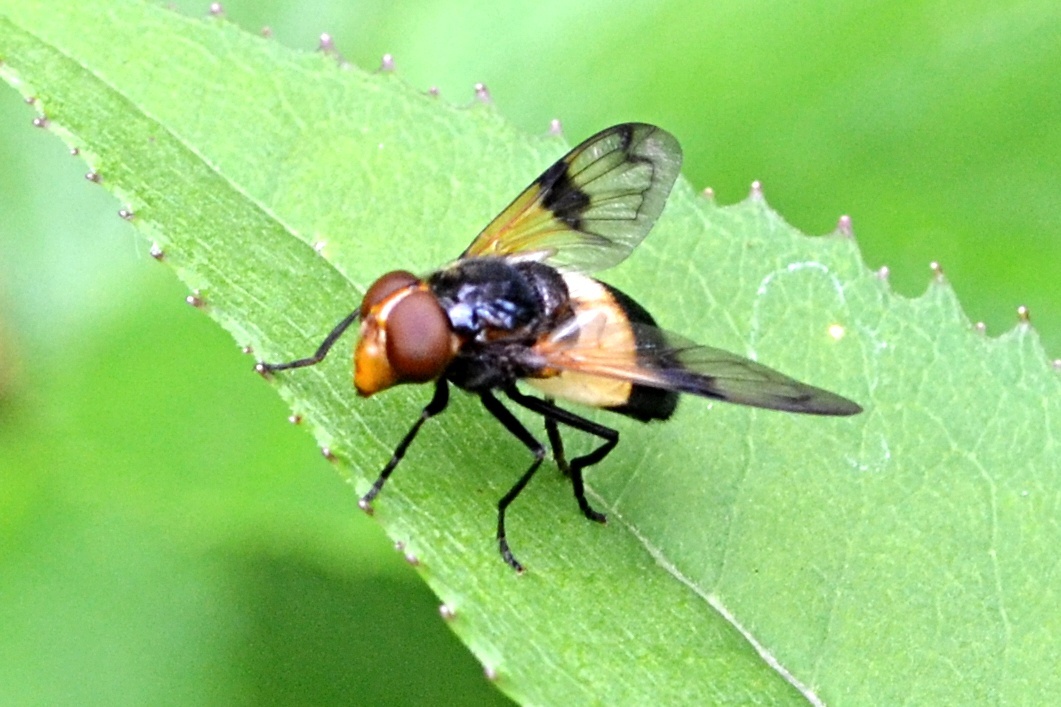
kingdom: Animalia
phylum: Arthropoda
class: Insecta
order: Diptera
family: Syrphidae
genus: Volucella
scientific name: Volucella pellucens
